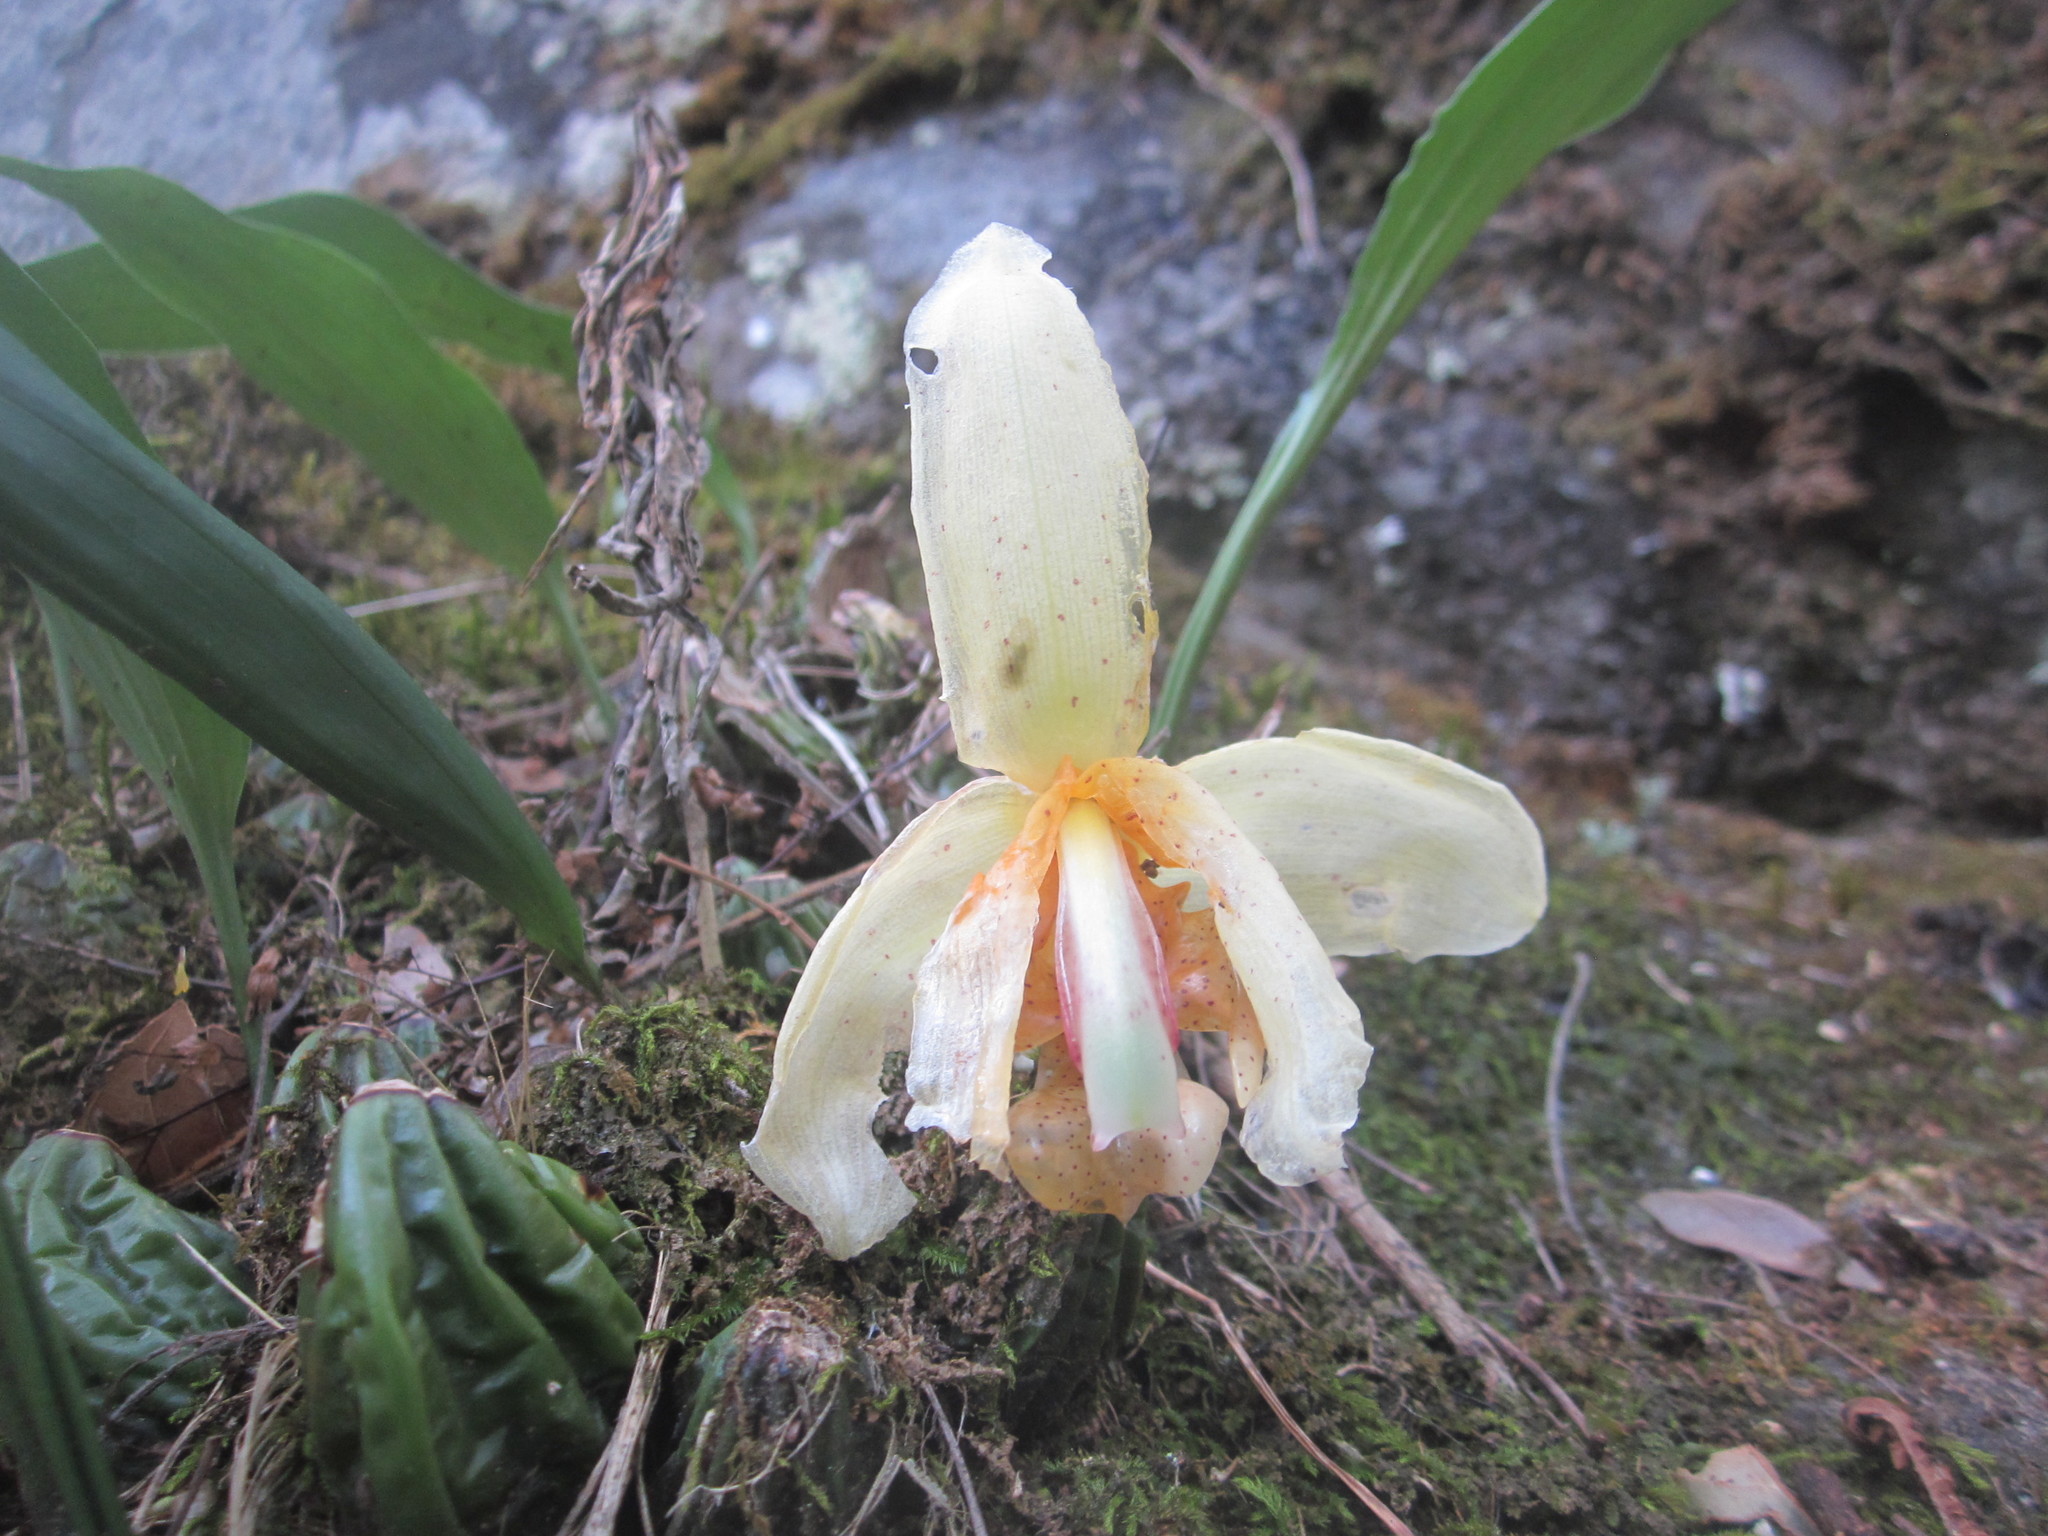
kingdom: Plantae
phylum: Tracheophyta
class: Liliopsida
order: Asparagales
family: Orchidaceae
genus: Stanhopea
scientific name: Stanhopea pseudoradiosa
